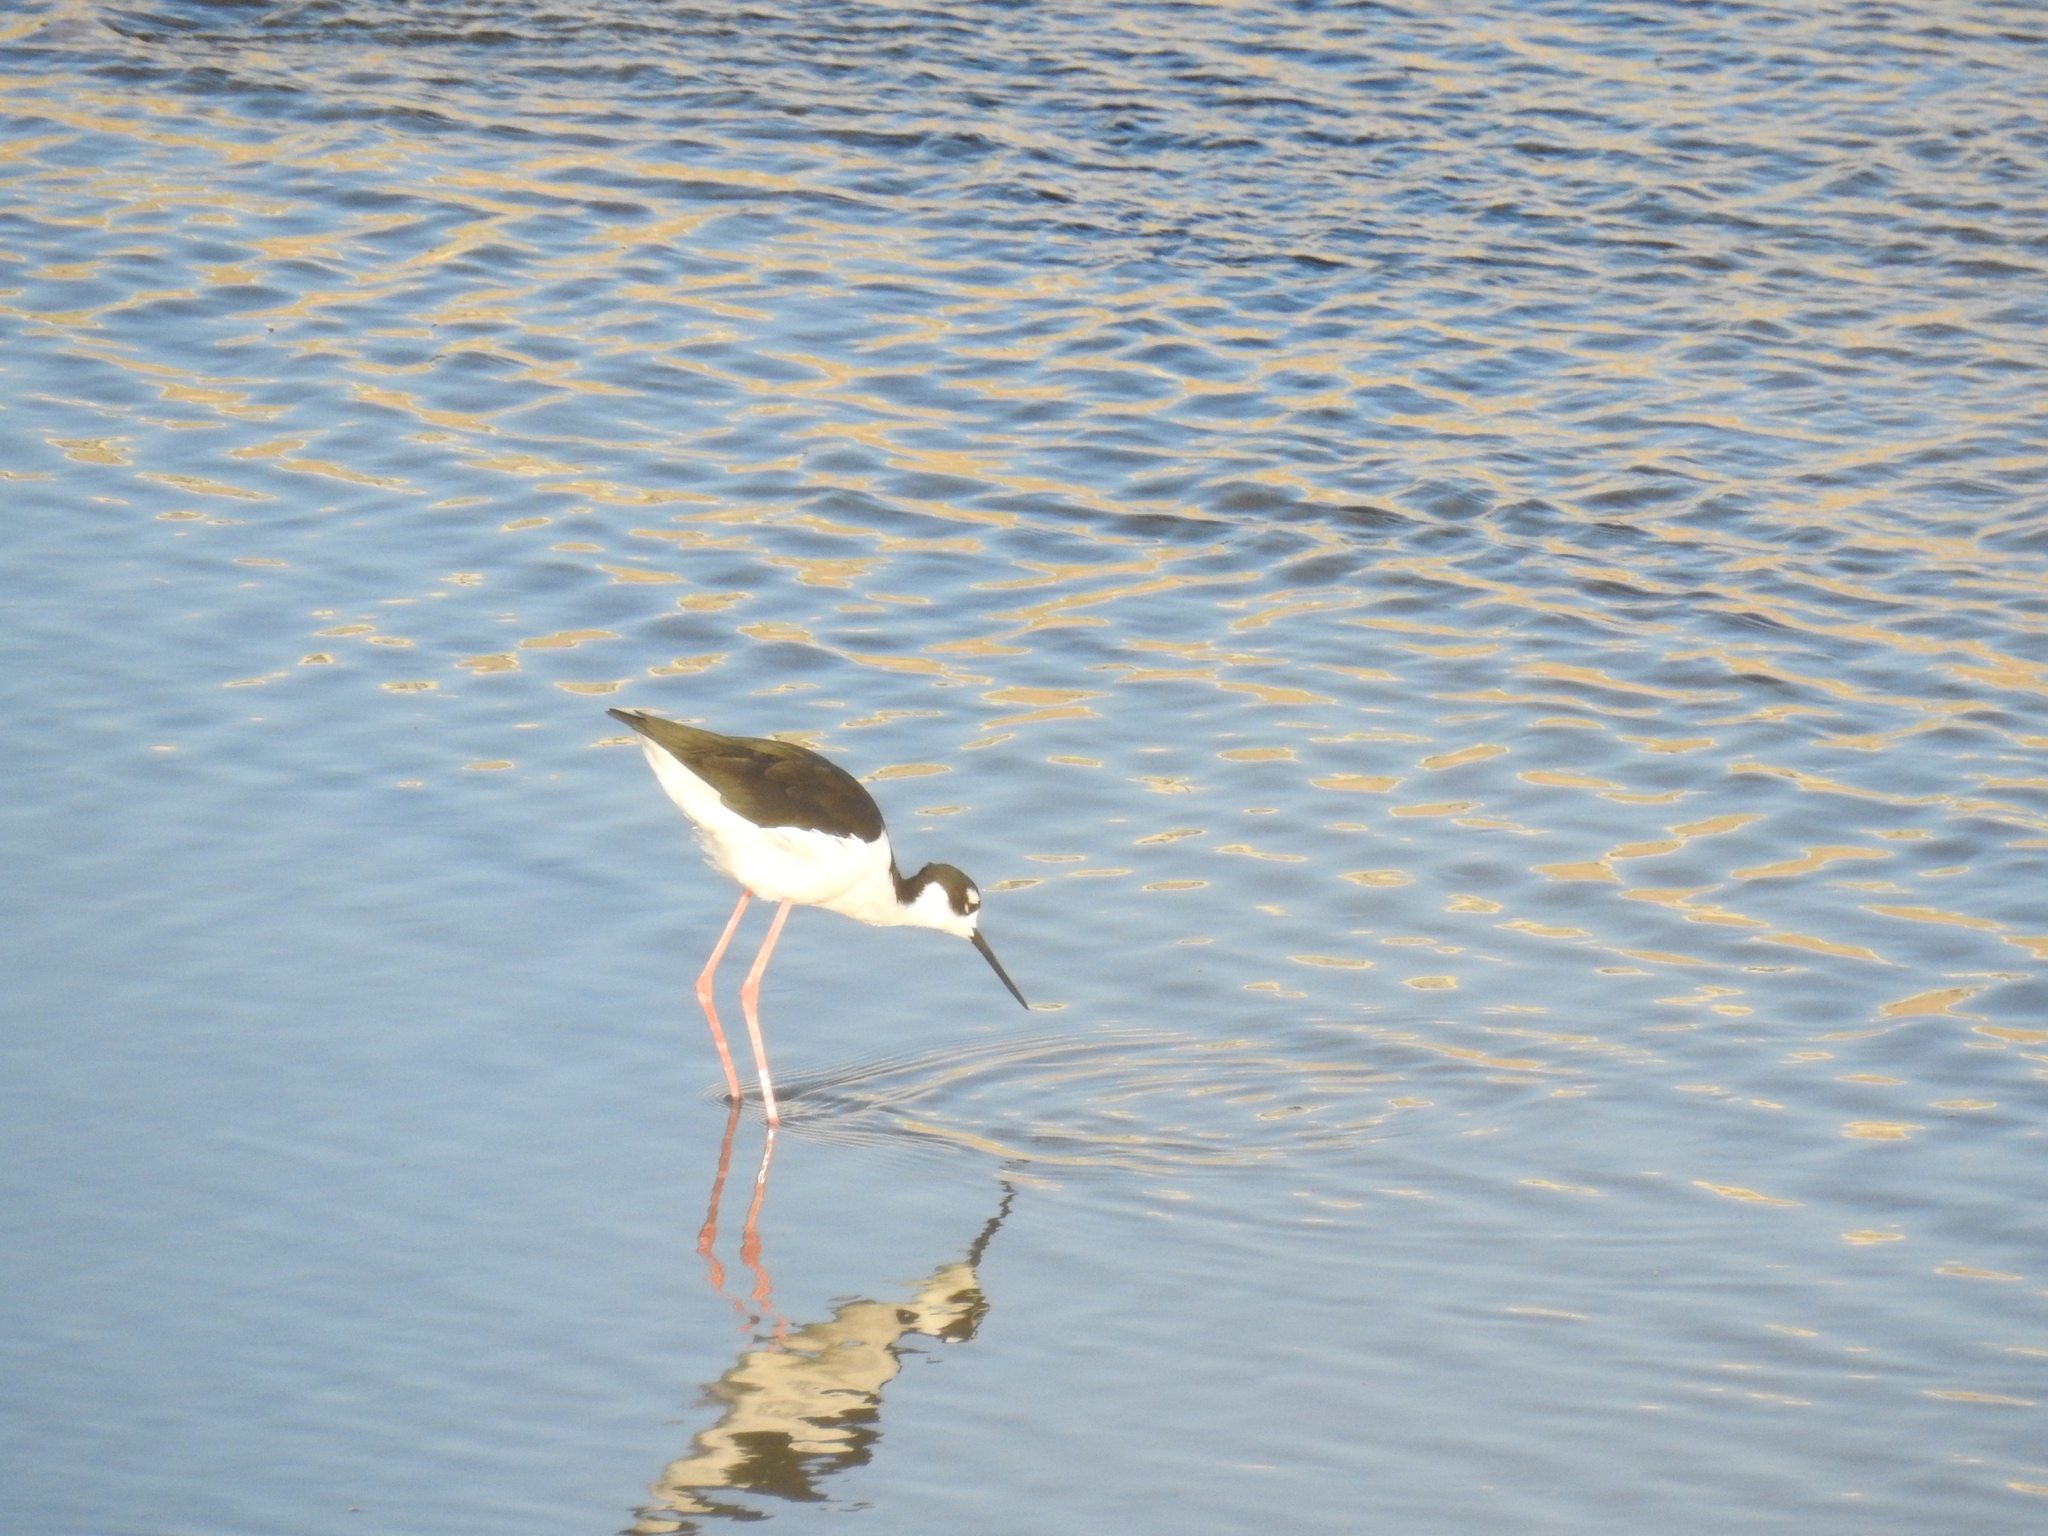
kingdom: Animalia
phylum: Chordata
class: Aves
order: Charadriiformes
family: Recurvirostridae
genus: Himantopus
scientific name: Himantopus mexicanus
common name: Black-necked stilt
